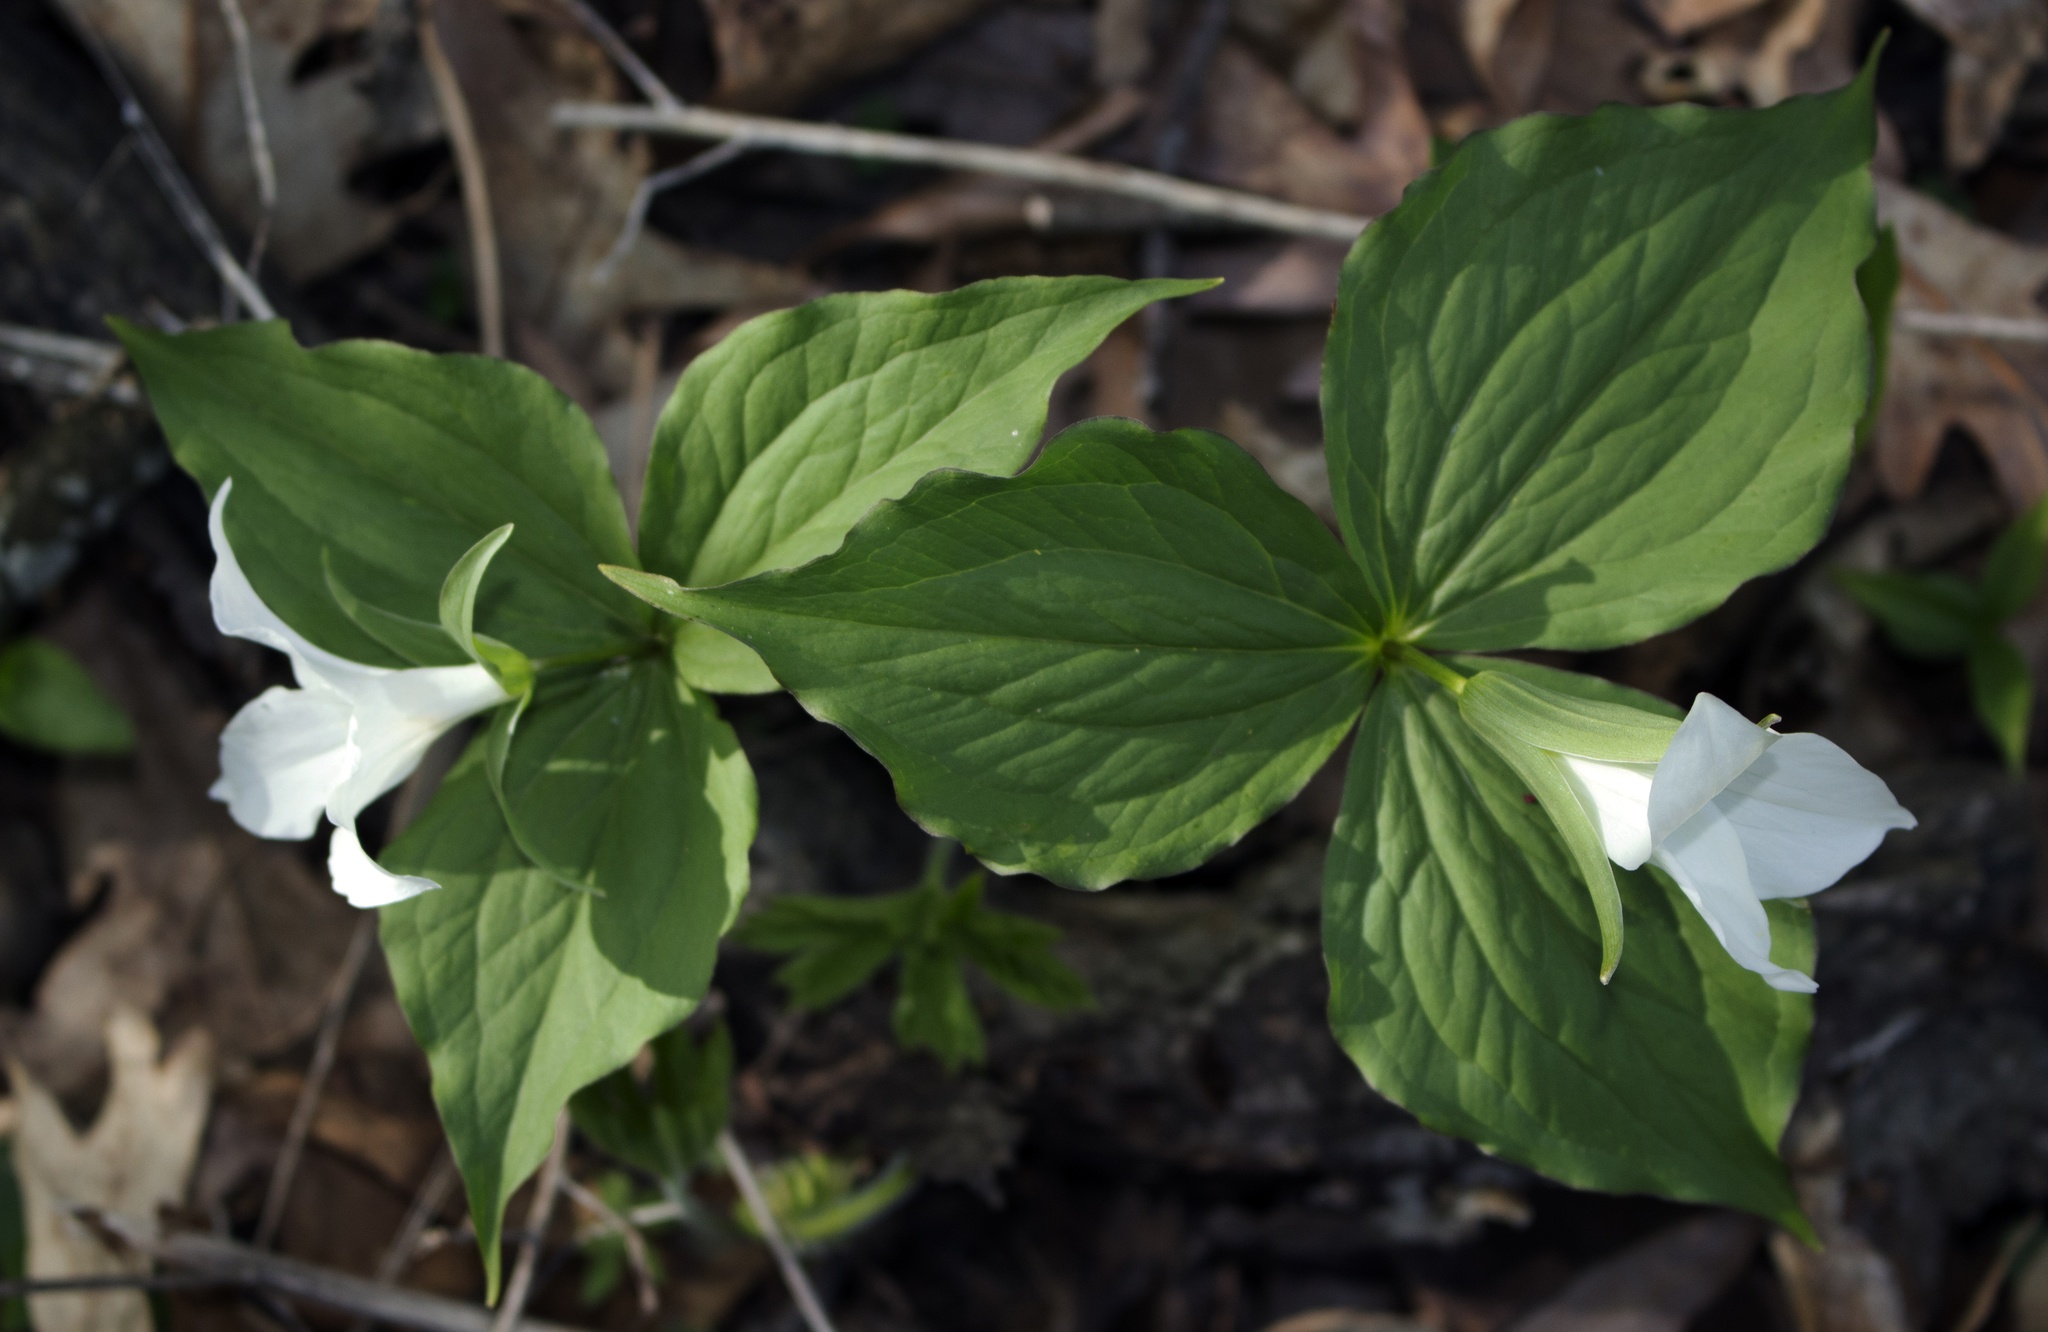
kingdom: Plantae
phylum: Tracheophyta
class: Liliopsida
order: Liliales
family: Melanthiaceae
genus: Trillium
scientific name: Trillium grandiflorum
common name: Great white trillium
